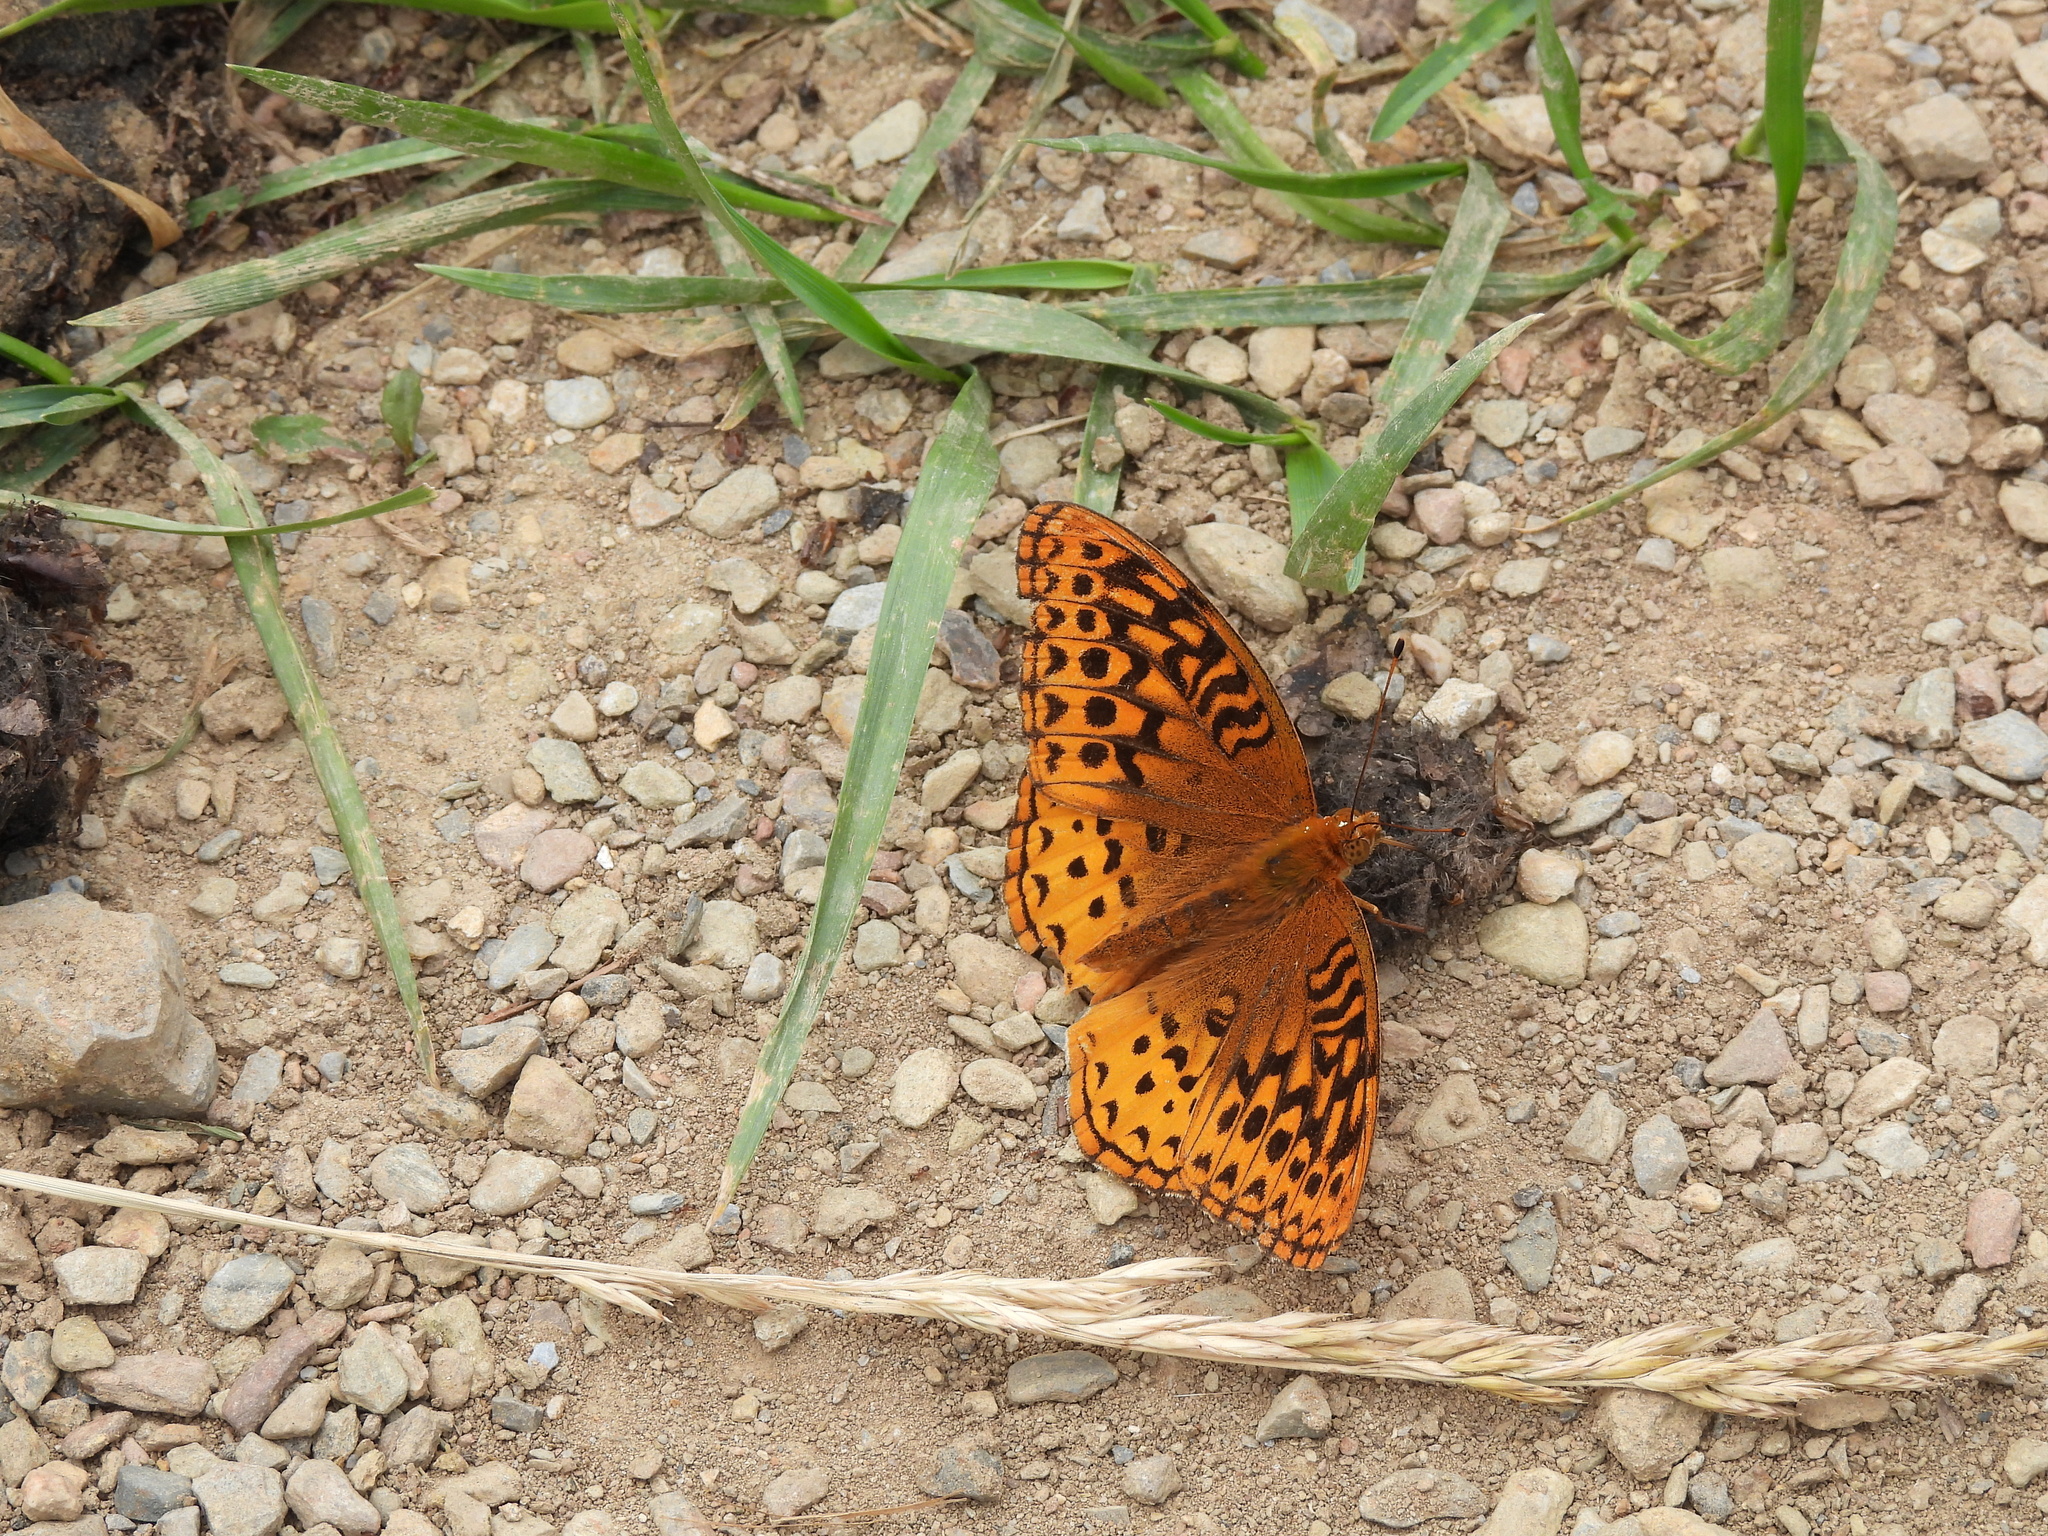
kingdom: Animalia
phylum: Arthropoda
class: Insecta
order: Lepidoptera
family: Nymphalidae
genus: Speyeria
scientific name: Speyeria cybele
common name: Great spangled fritillary
